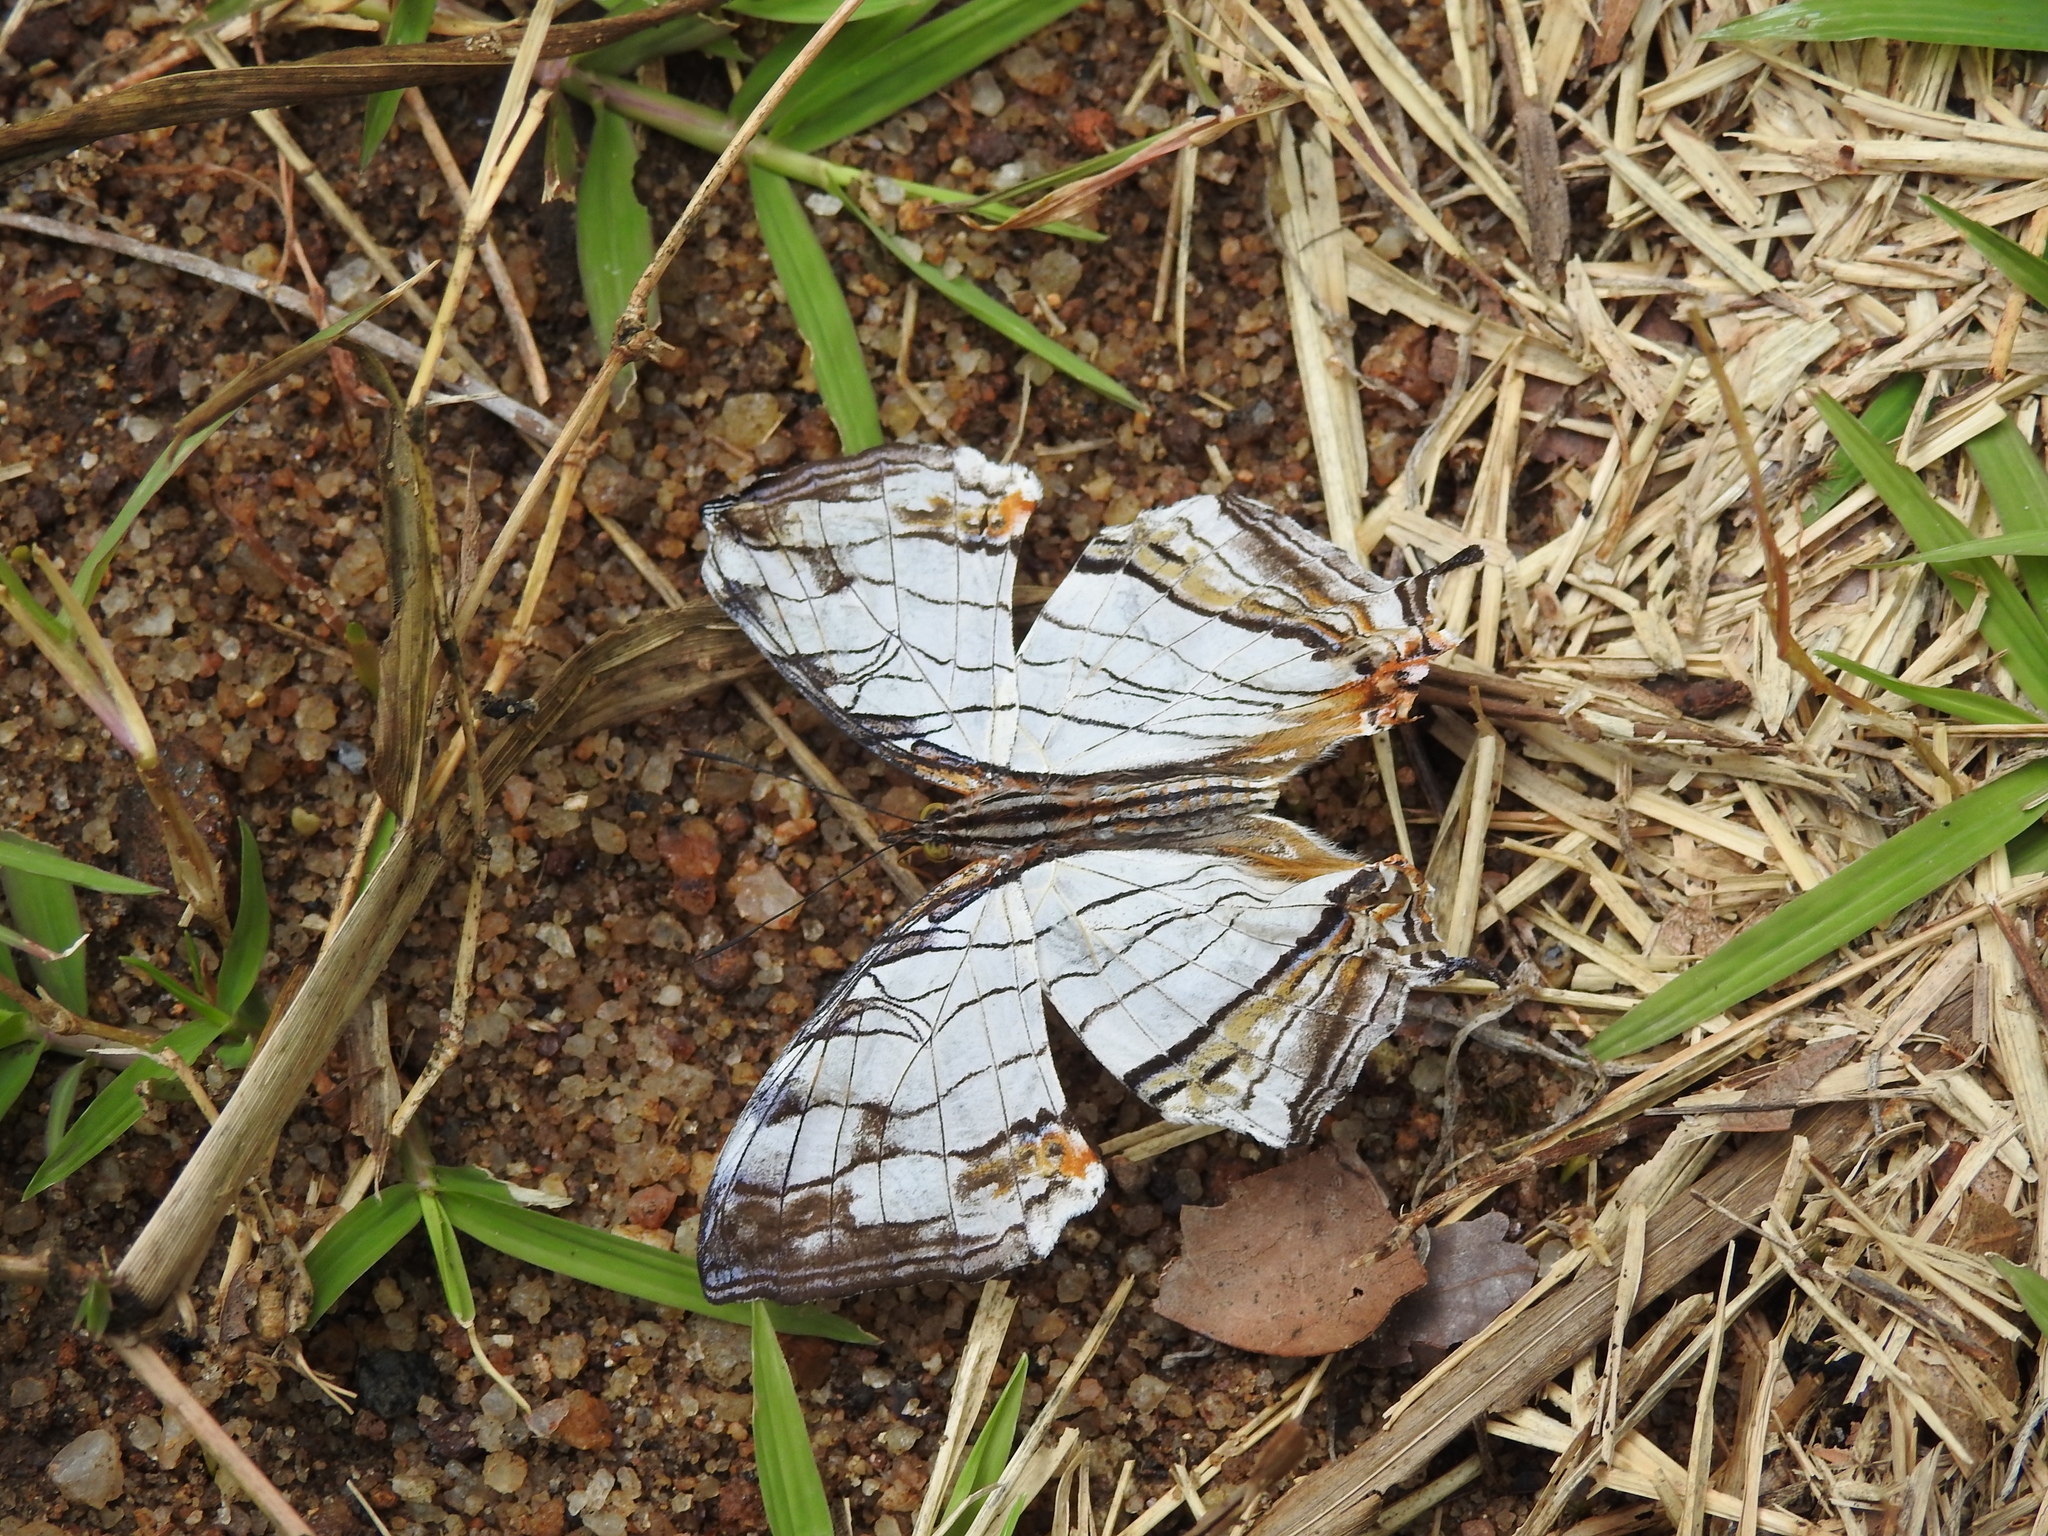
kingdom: Animalia
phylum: Arthropoda
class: Insecta
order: Lepidoptera
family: Nymphalidae
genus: Cyrestis
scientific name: Cyrestis thyodamas
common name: Common mapwing
